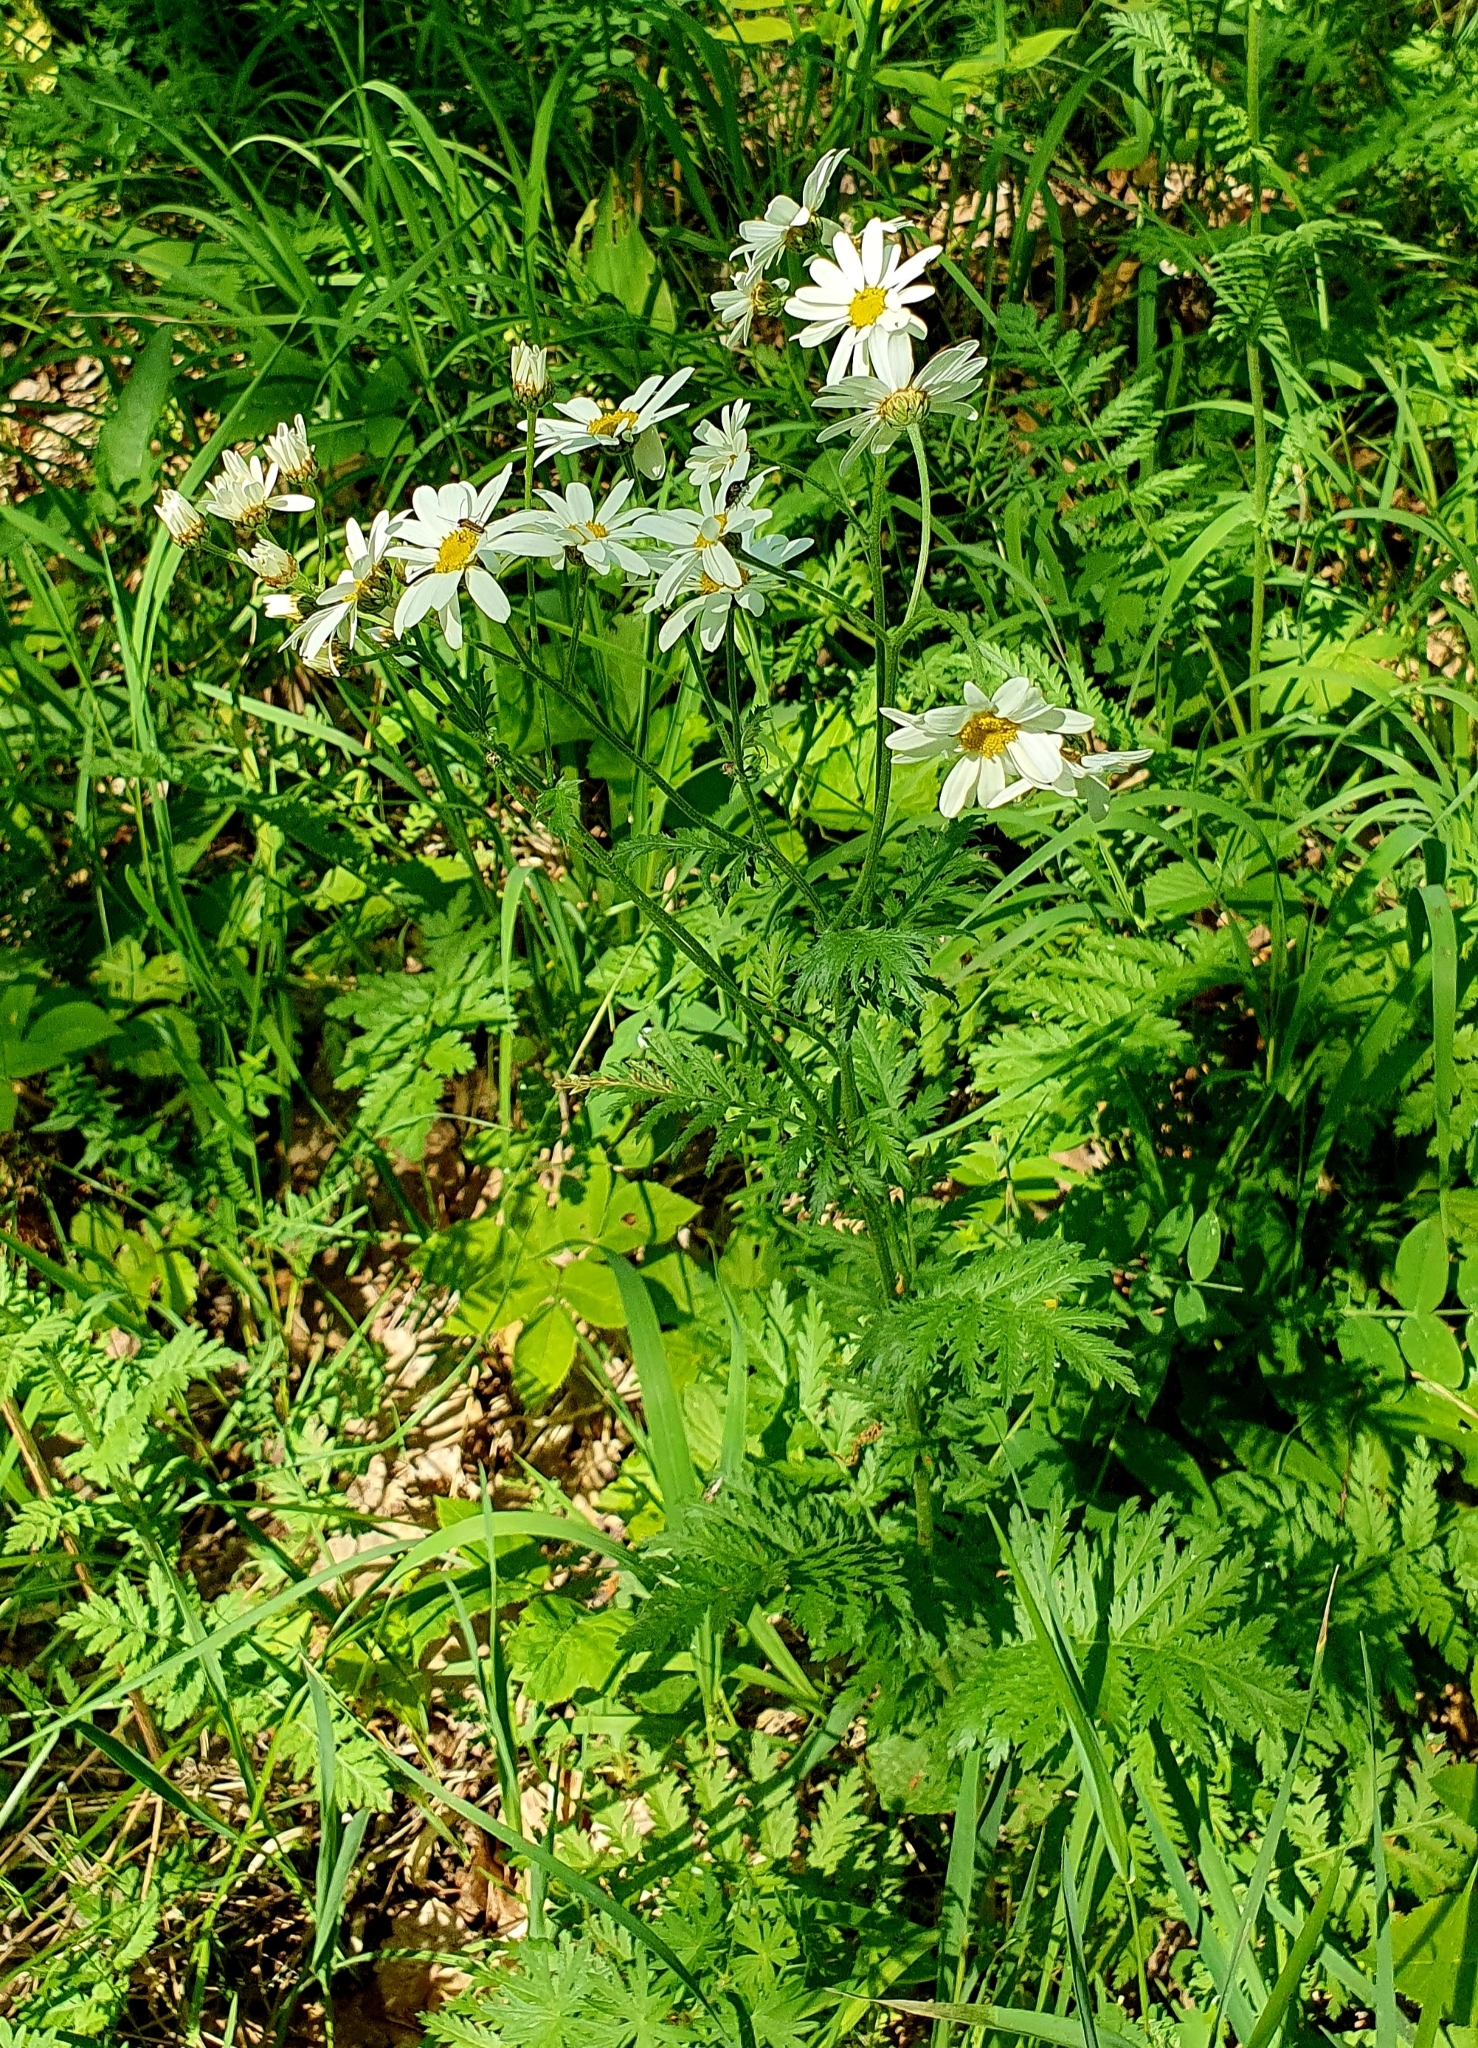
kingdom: Plantae
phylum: Tracheophyta
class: Magnoliopsida
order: Asterales
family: Asteraceae
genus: Tanacetum
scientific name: Tanacetum corymbosum
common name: Scentless feverfew
